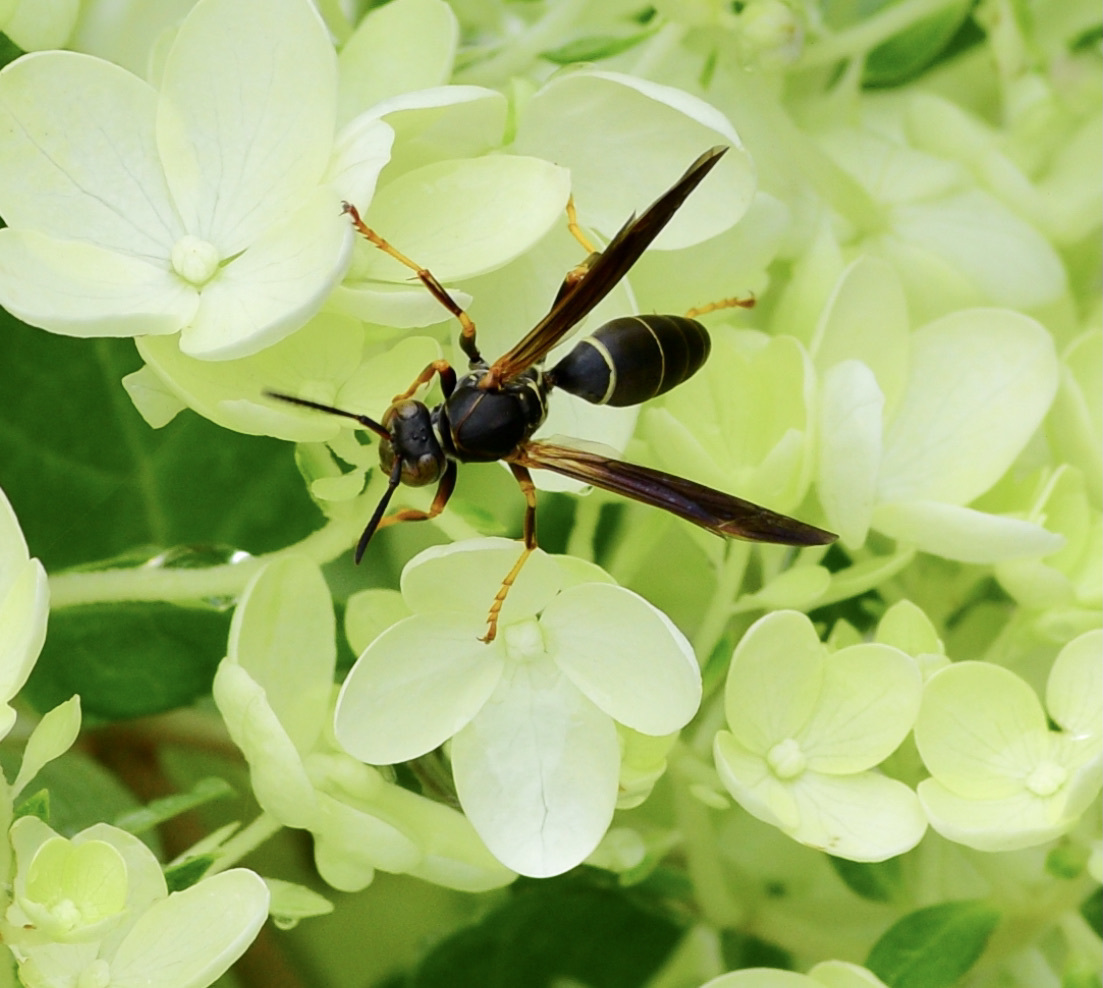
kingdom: Animalia
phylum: Arthropoda
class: Insecta
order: Hymenoptera
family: Eumenidae
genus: Polistes
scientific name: Polistes fuscatus
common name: Dark paper wasp
